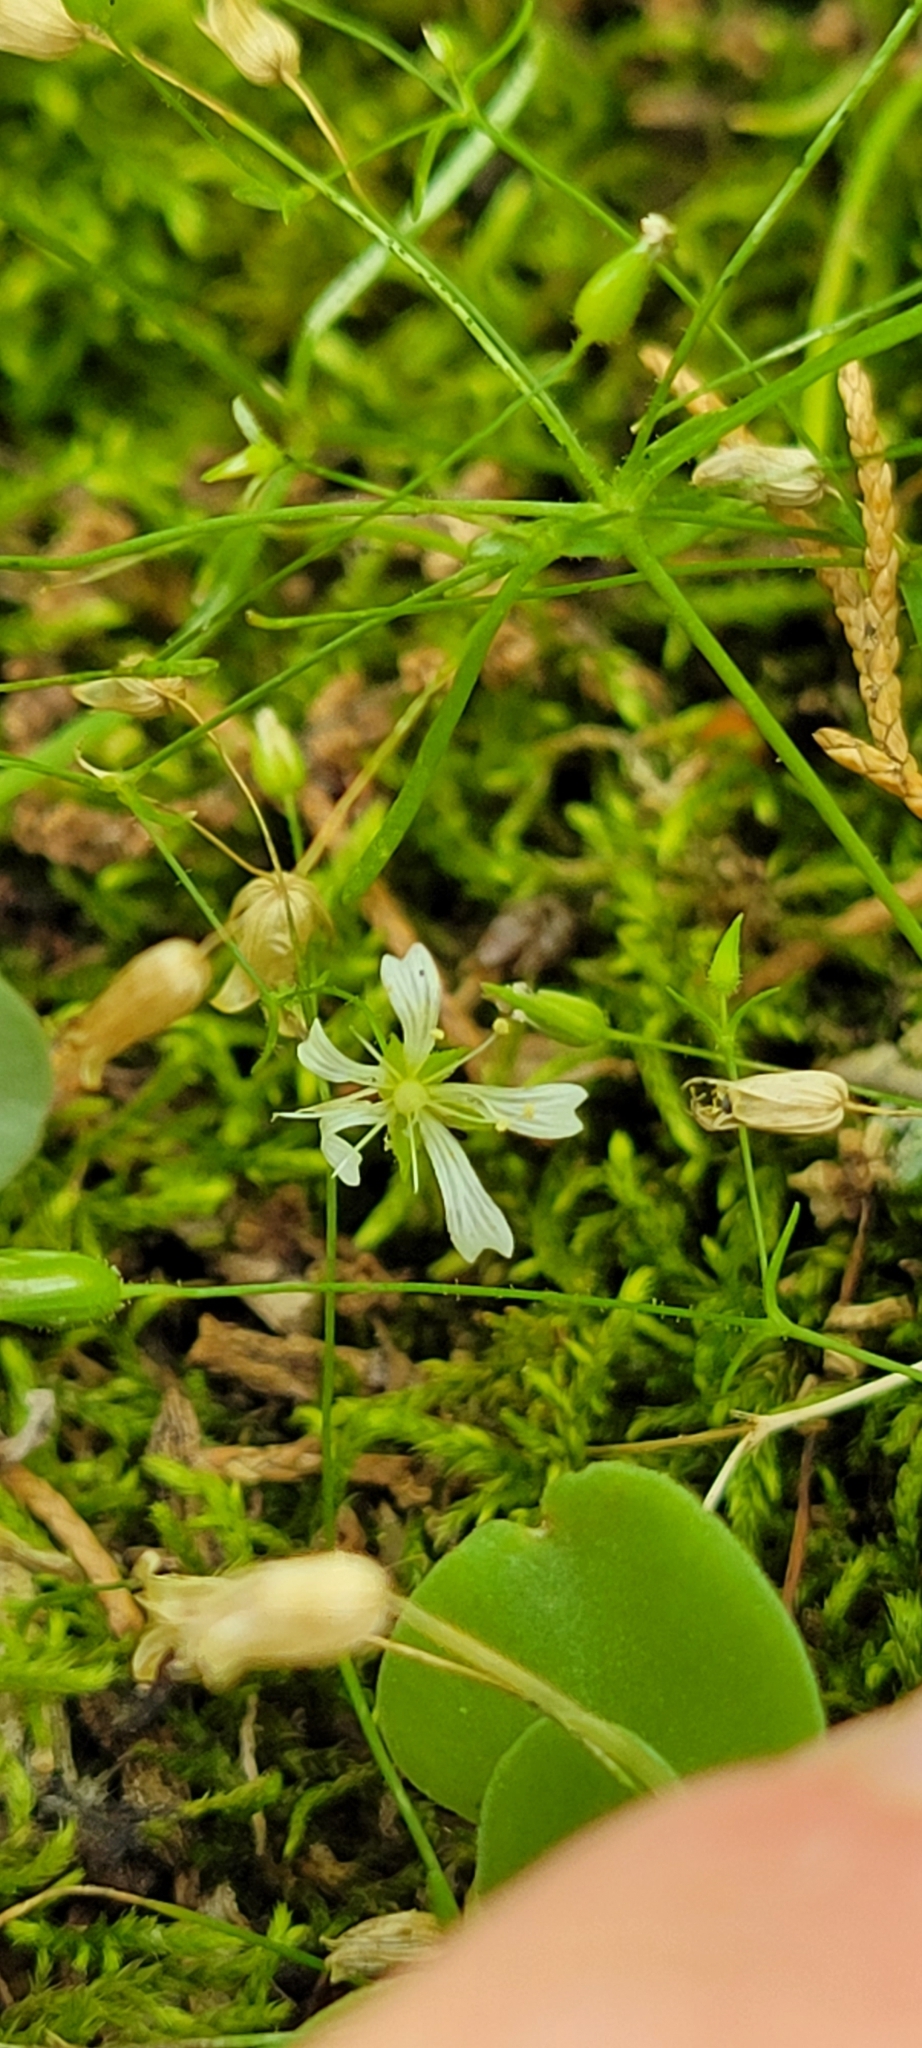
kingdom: Plantae
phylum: Tracheophyta
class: Magnoliopsida
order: Caryophyllales
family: Caryophyllaceae
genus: Mononeuria
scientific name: Mononeuria patula
